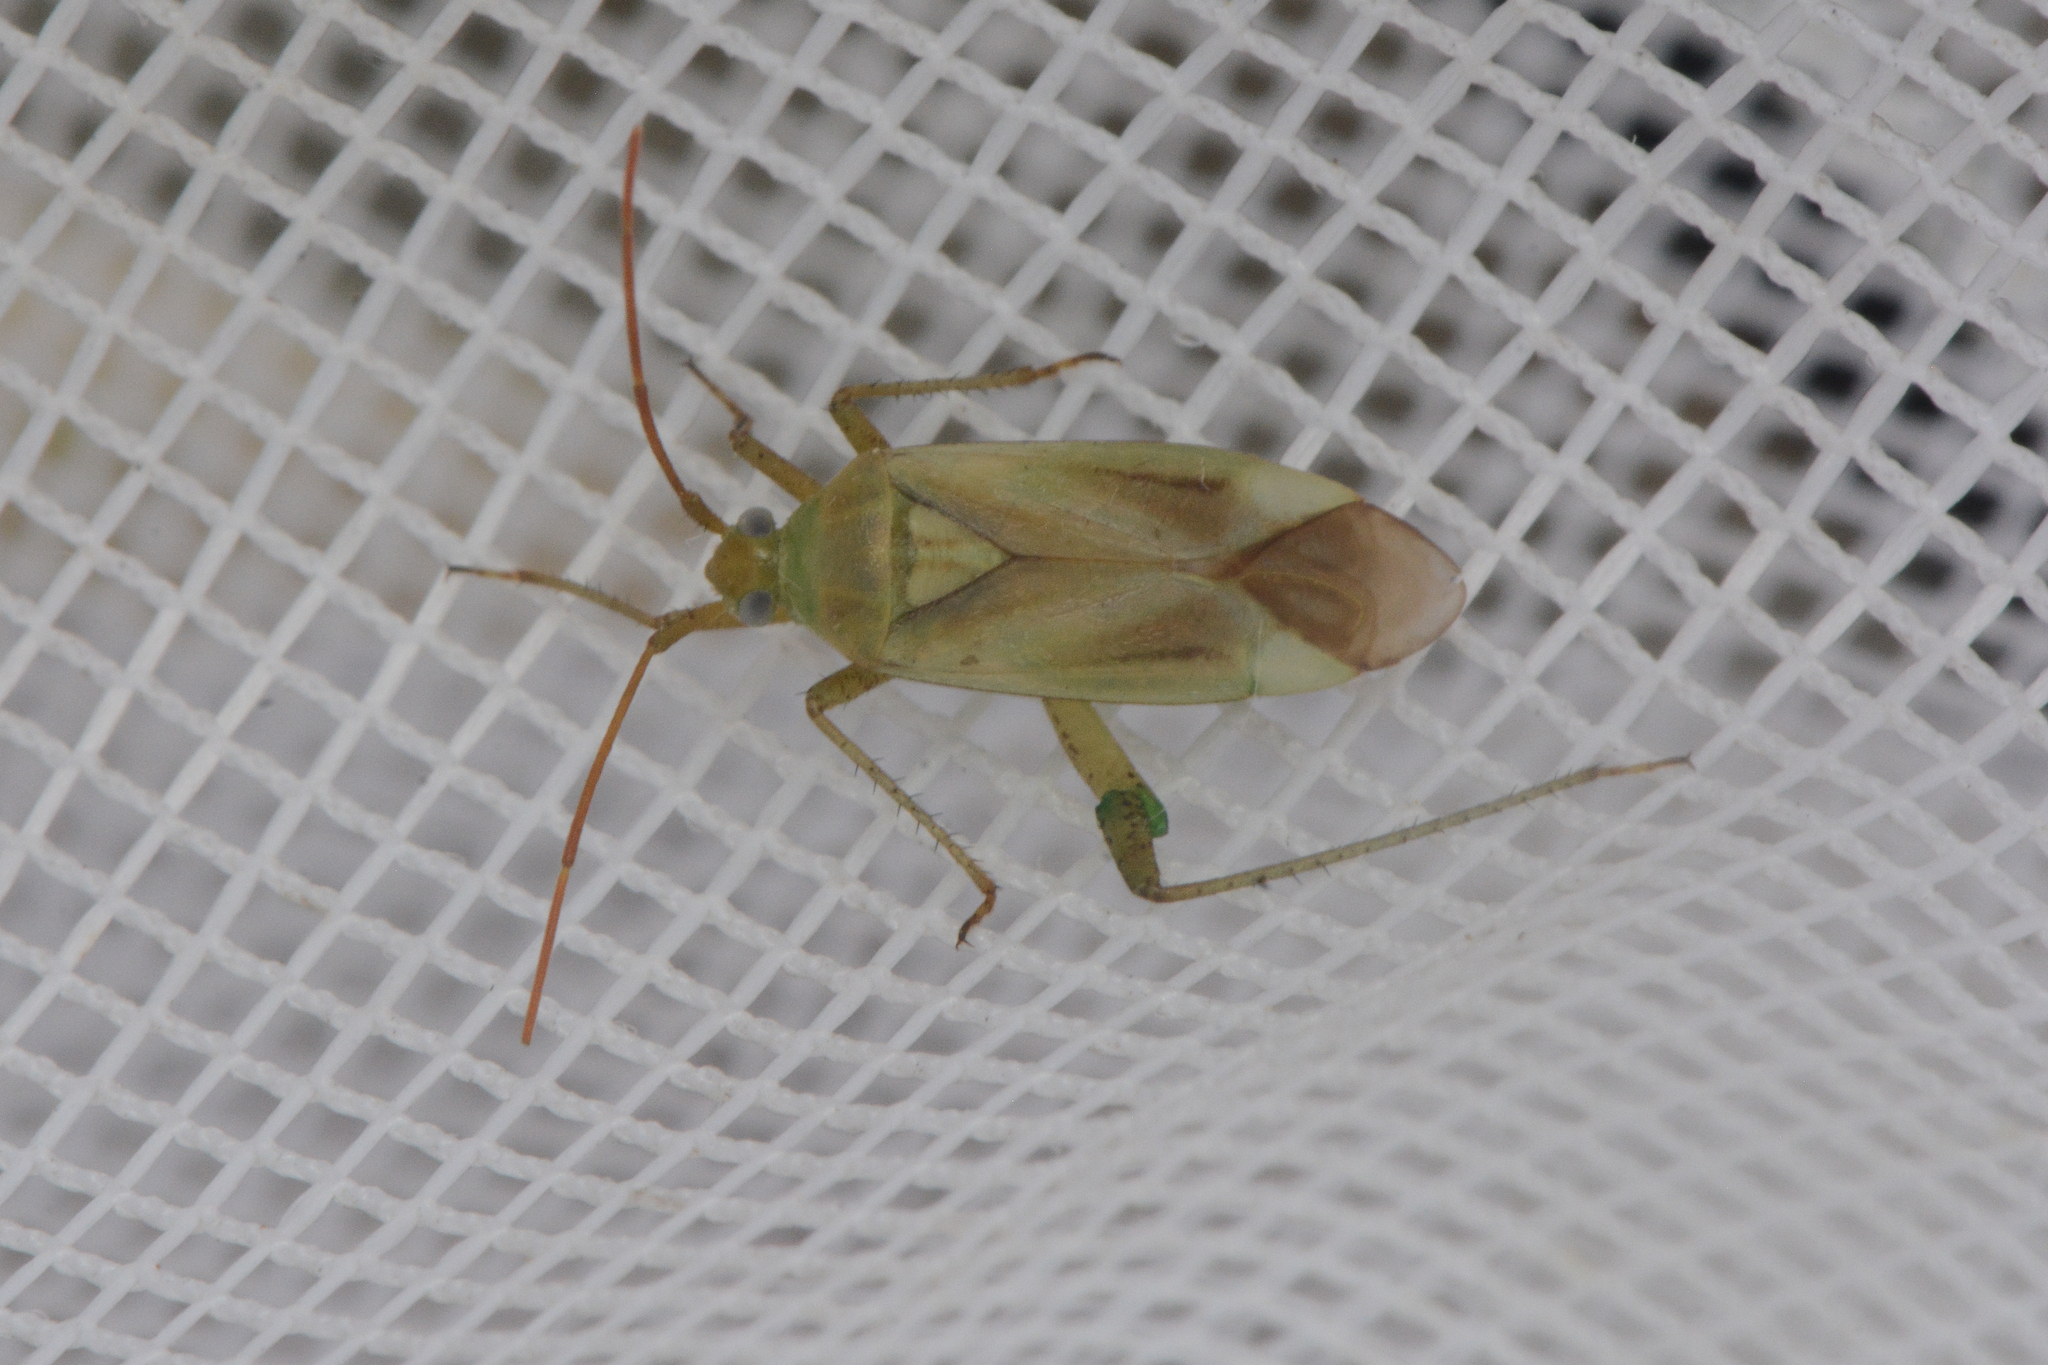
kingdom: Animalia
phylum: Arthropoda
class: Insecta
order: Hemiptera
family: Miridae
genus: Adelphocoris
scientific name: Adelphocoris lineolatus
